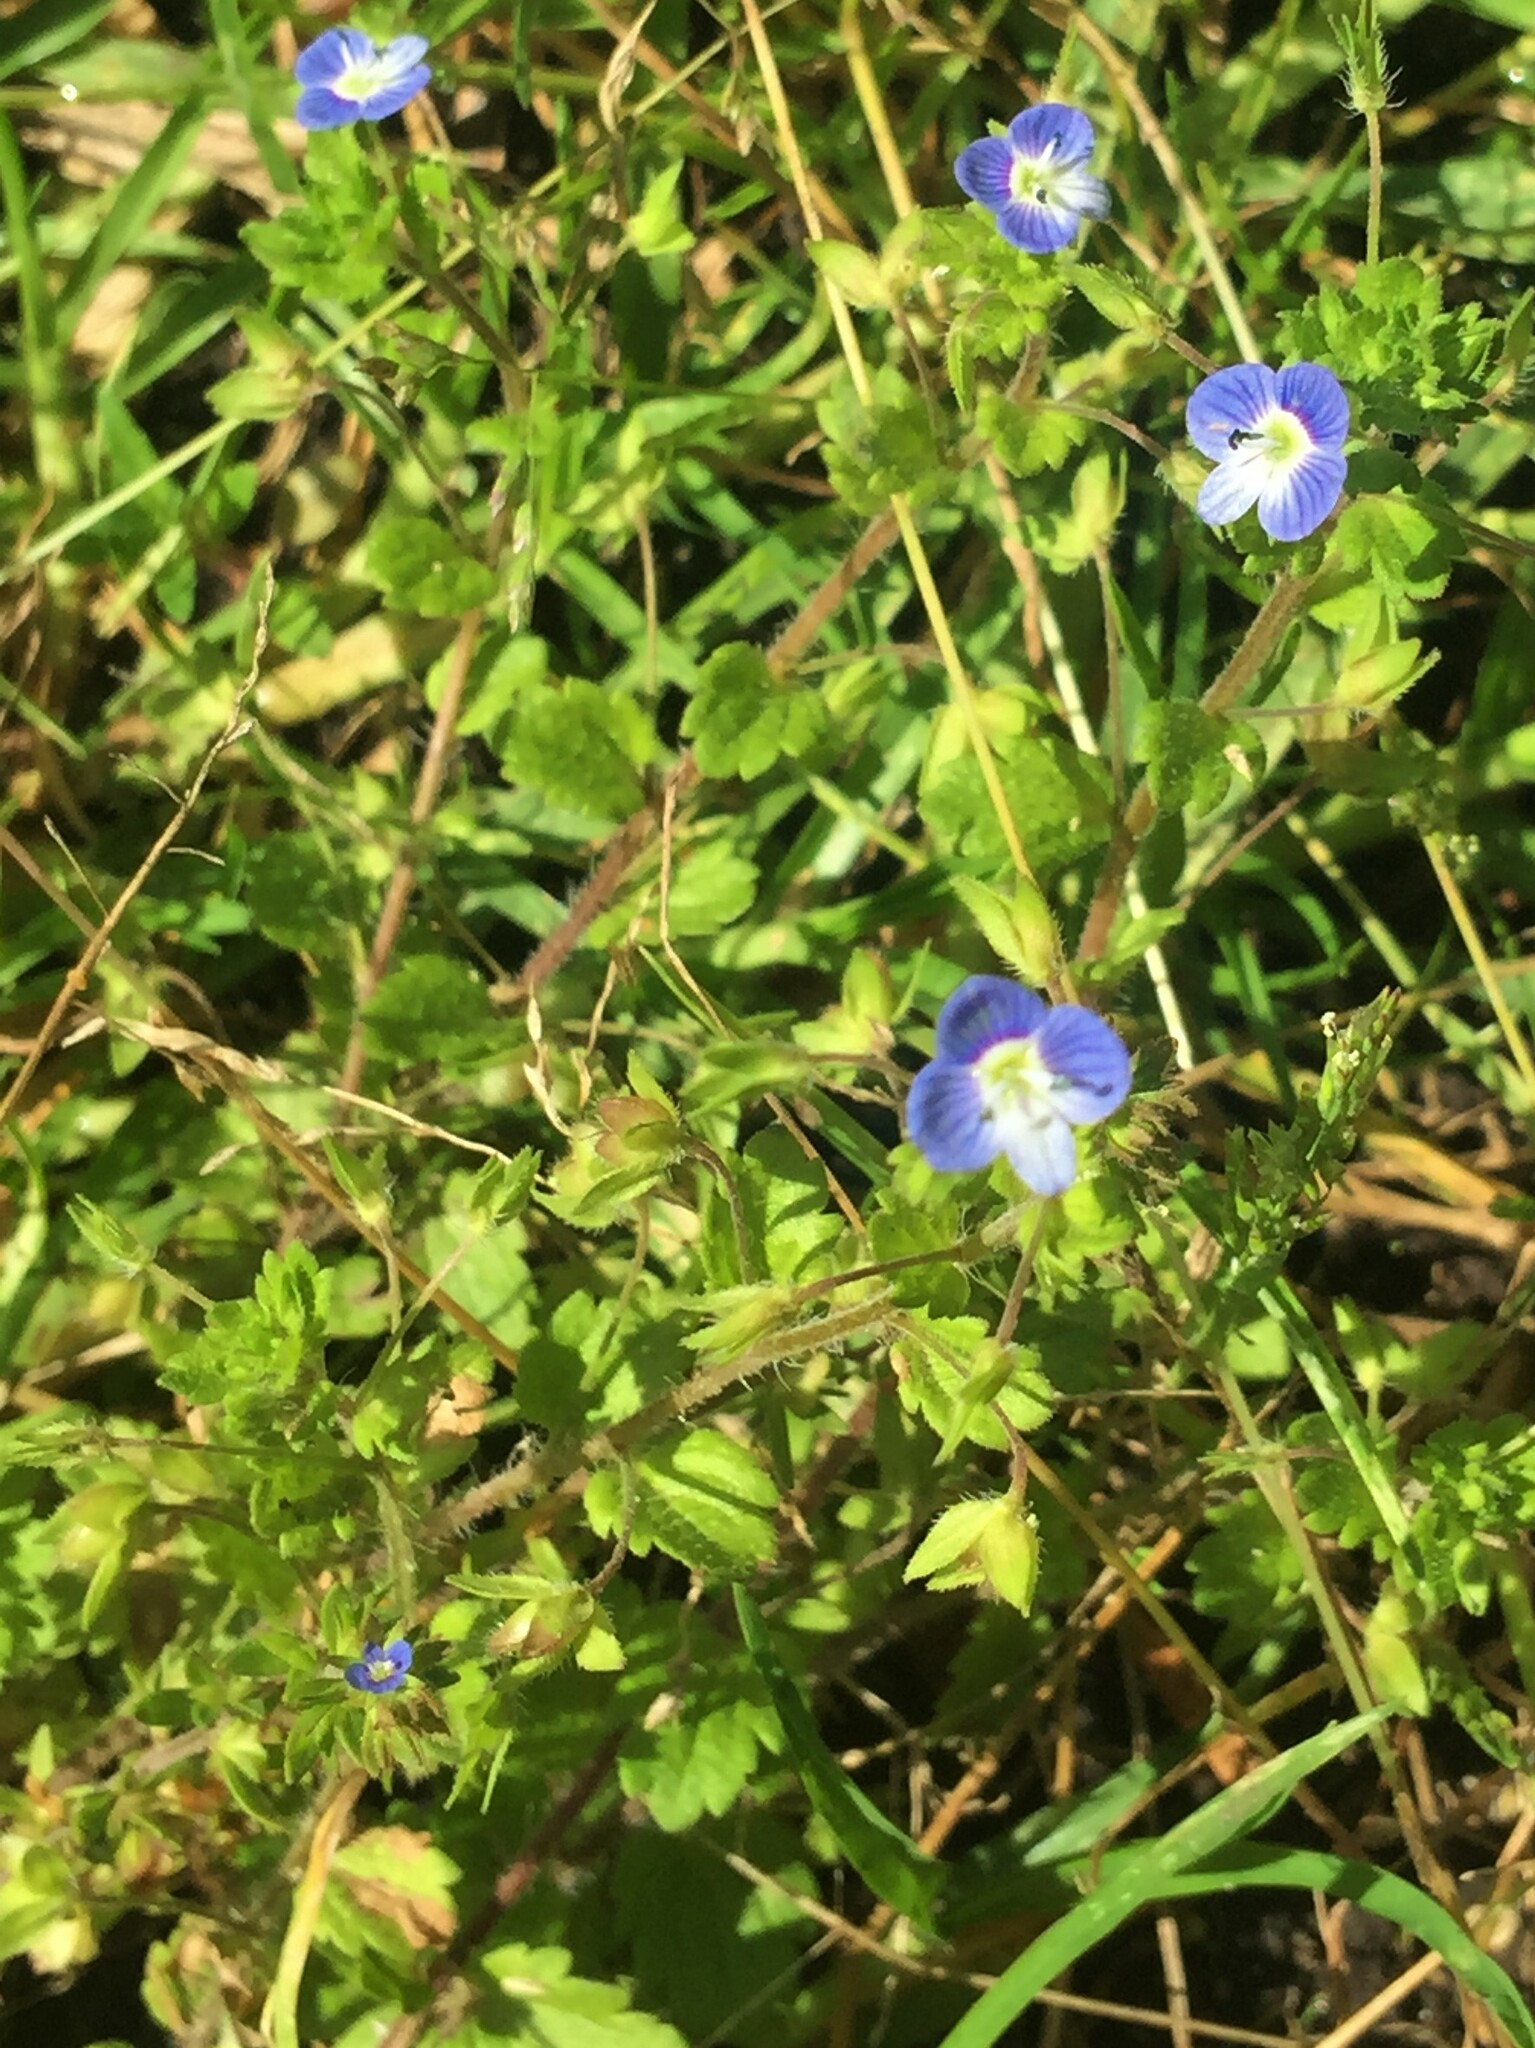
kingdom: Plantae
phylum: Tracheophyta
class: Magnoliopsida
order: Lamiales
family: Plantaginaceae
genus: Veronica
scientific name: Veronica persica
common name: Common field-speedwell
